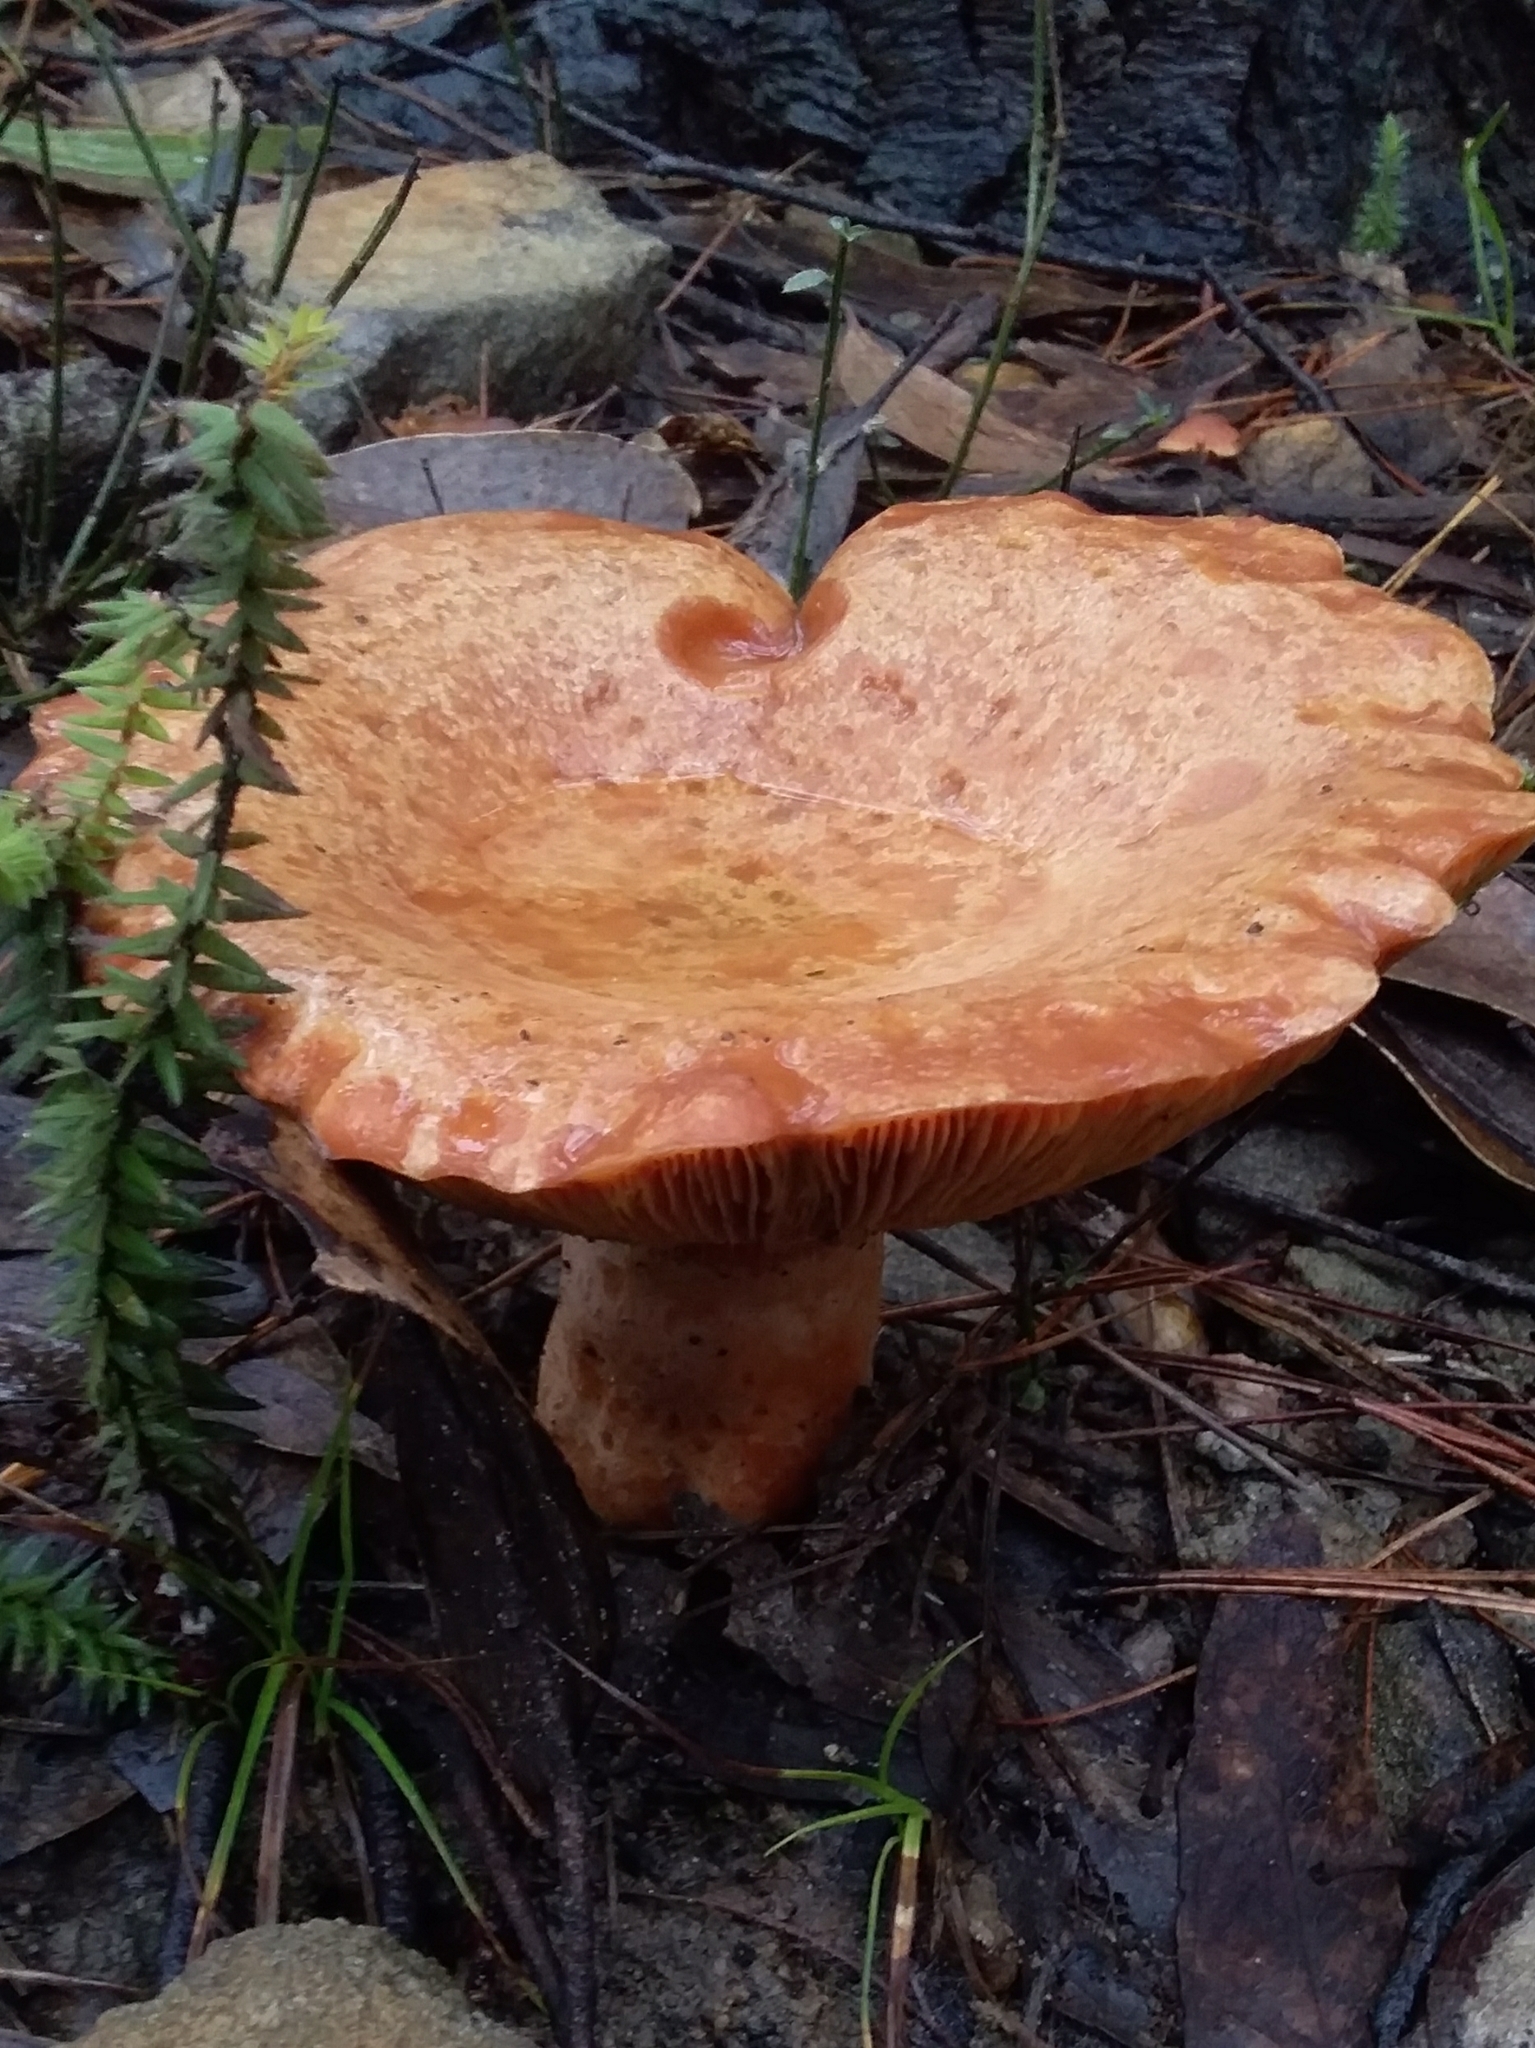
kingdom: Fungi
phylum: Basidiomycota
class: Agaricomycetes
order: Russulales
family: Russulaceae
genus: Lactarius
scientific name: Lactarius deliciosus
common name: Saffron milk-cap
